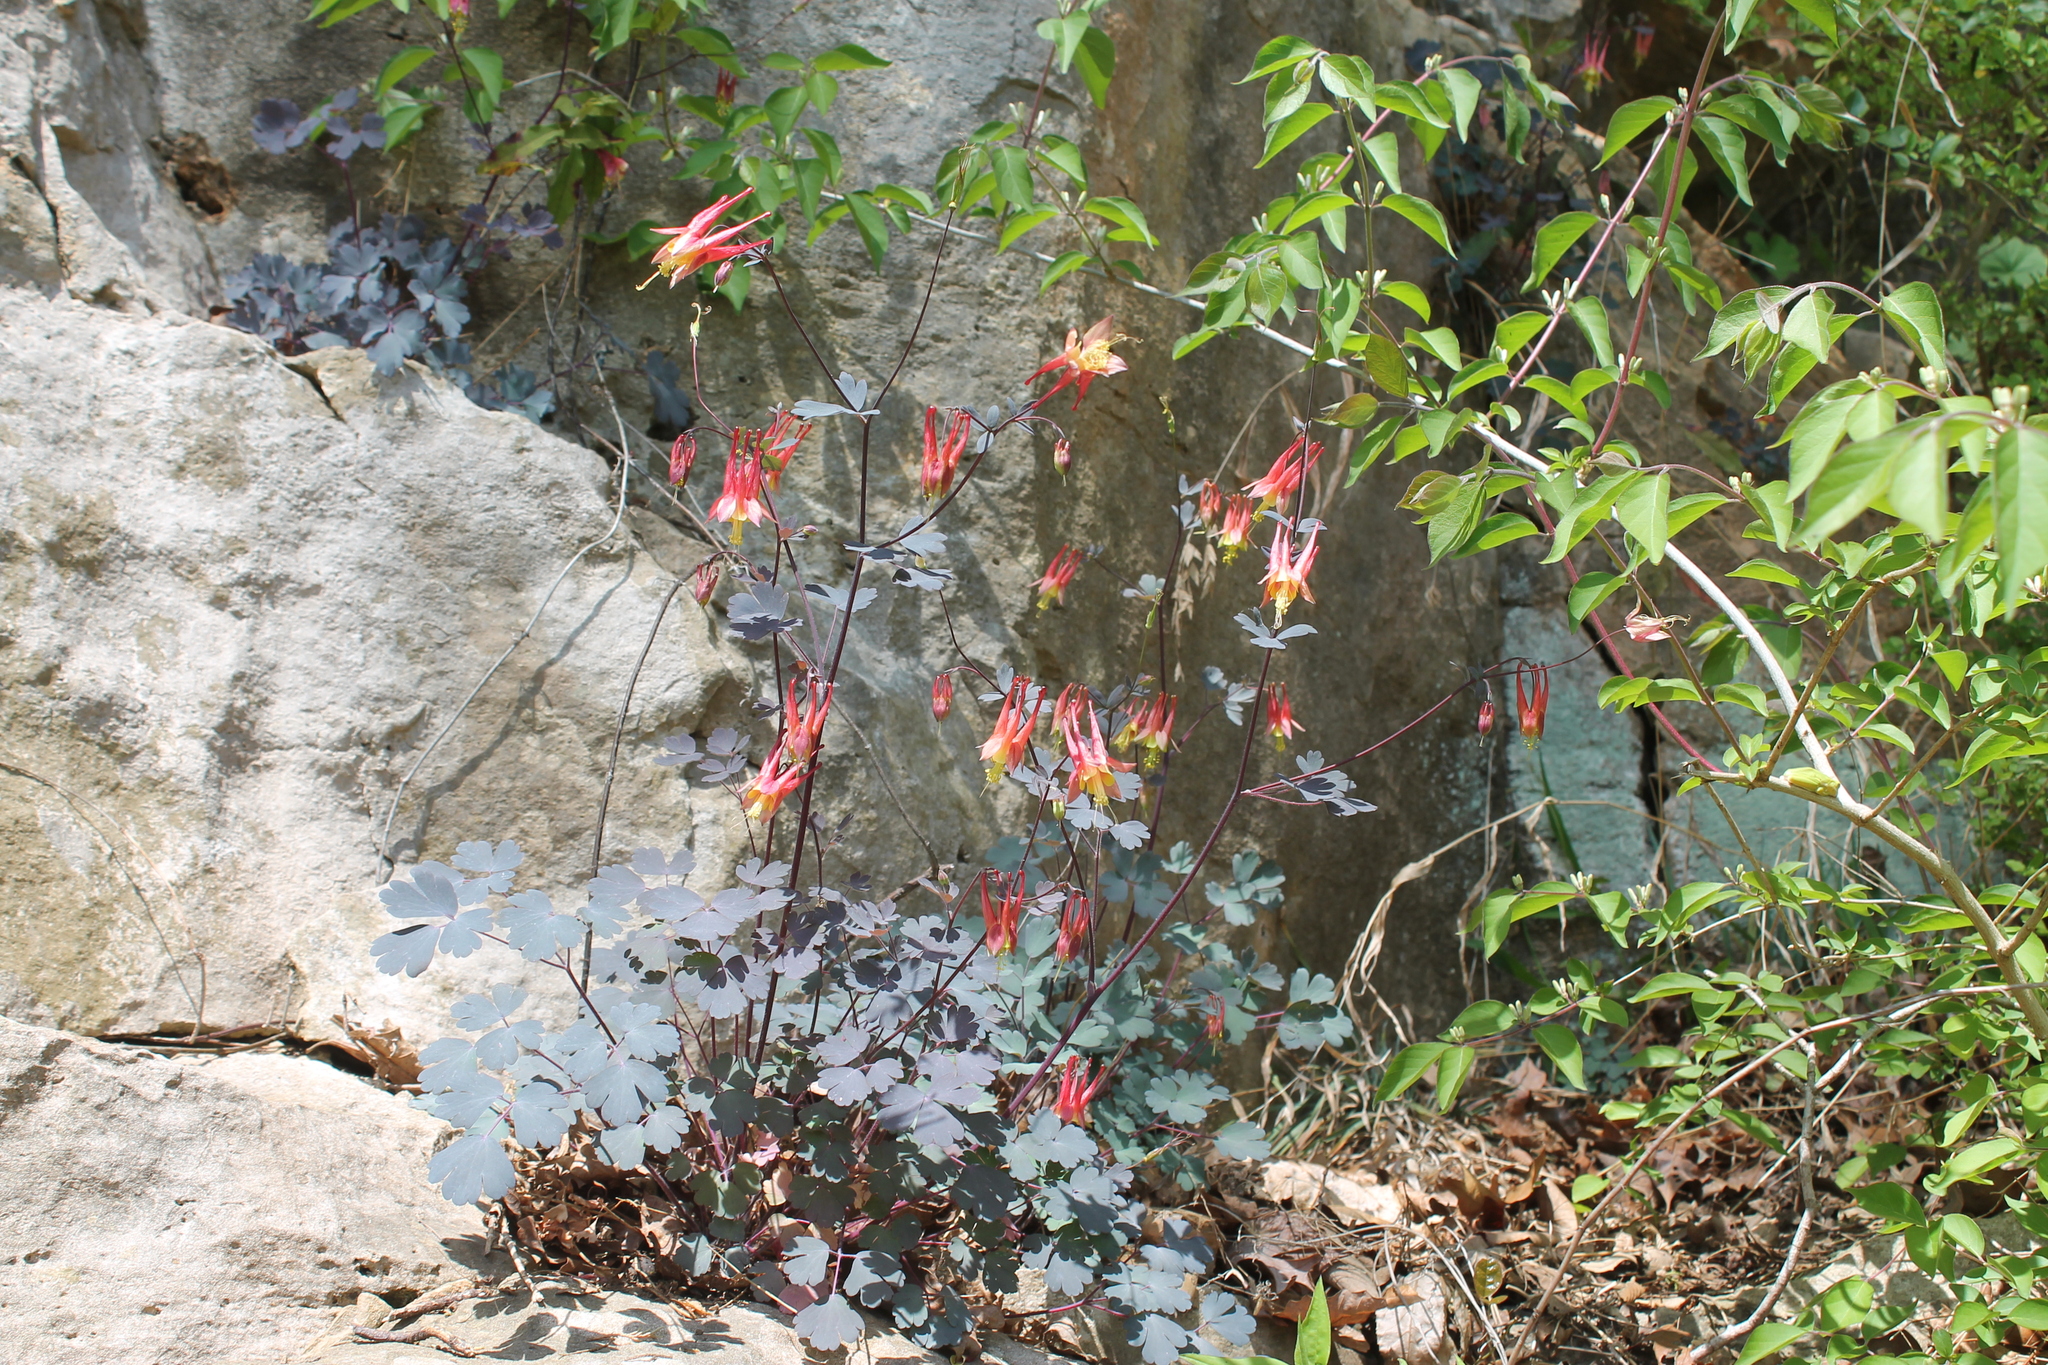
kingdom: Plantae
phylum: Tracheophyta
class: Magnoliopsida
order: Ranunculales
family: Ranunculaceae
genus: Aquilegia
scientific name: Aquilegia canadensis
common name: American columbine
